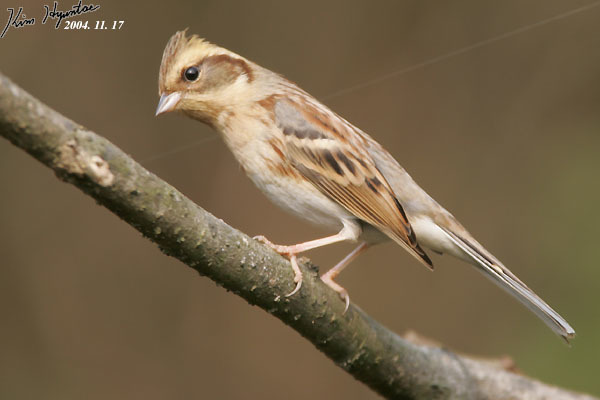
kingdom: Animalia
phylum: Chordata
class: Aves
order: Passeriformes
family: Emberizidae
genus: Emberiza
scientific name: Emberiza elegans
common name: Yellow-throated bunting
